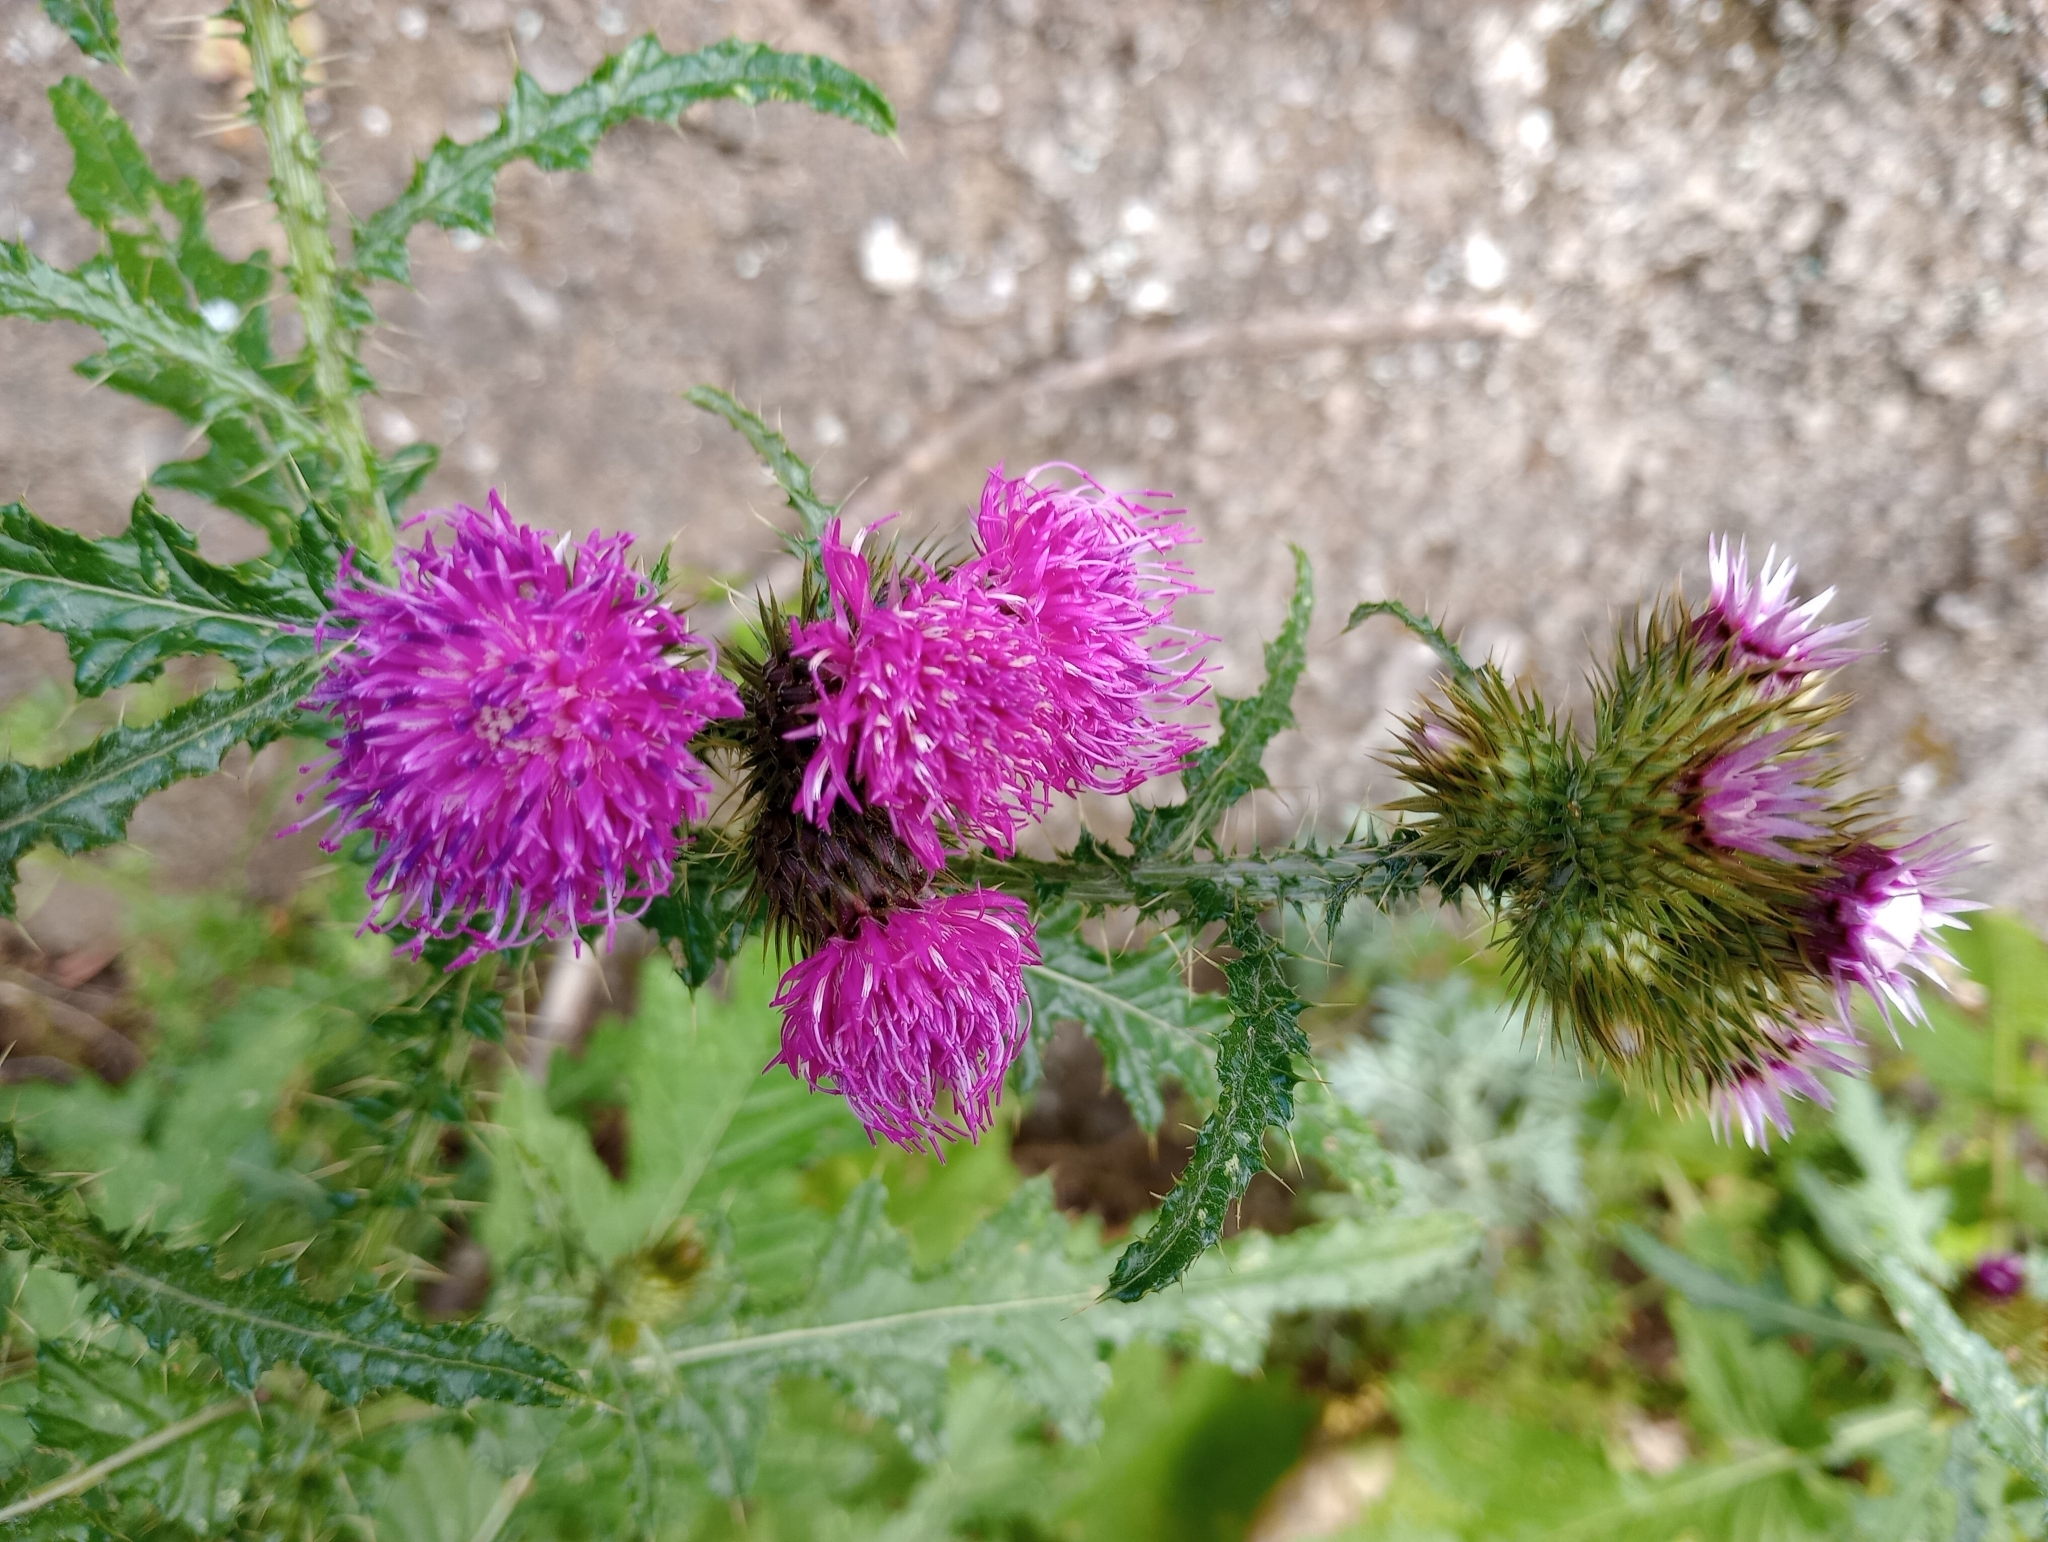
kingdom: Plantae
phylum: Tracheophyta
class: Magnoliopsida
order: Asterales
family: Asteraceae
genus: Carduus
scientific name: Carduus clavulatus
